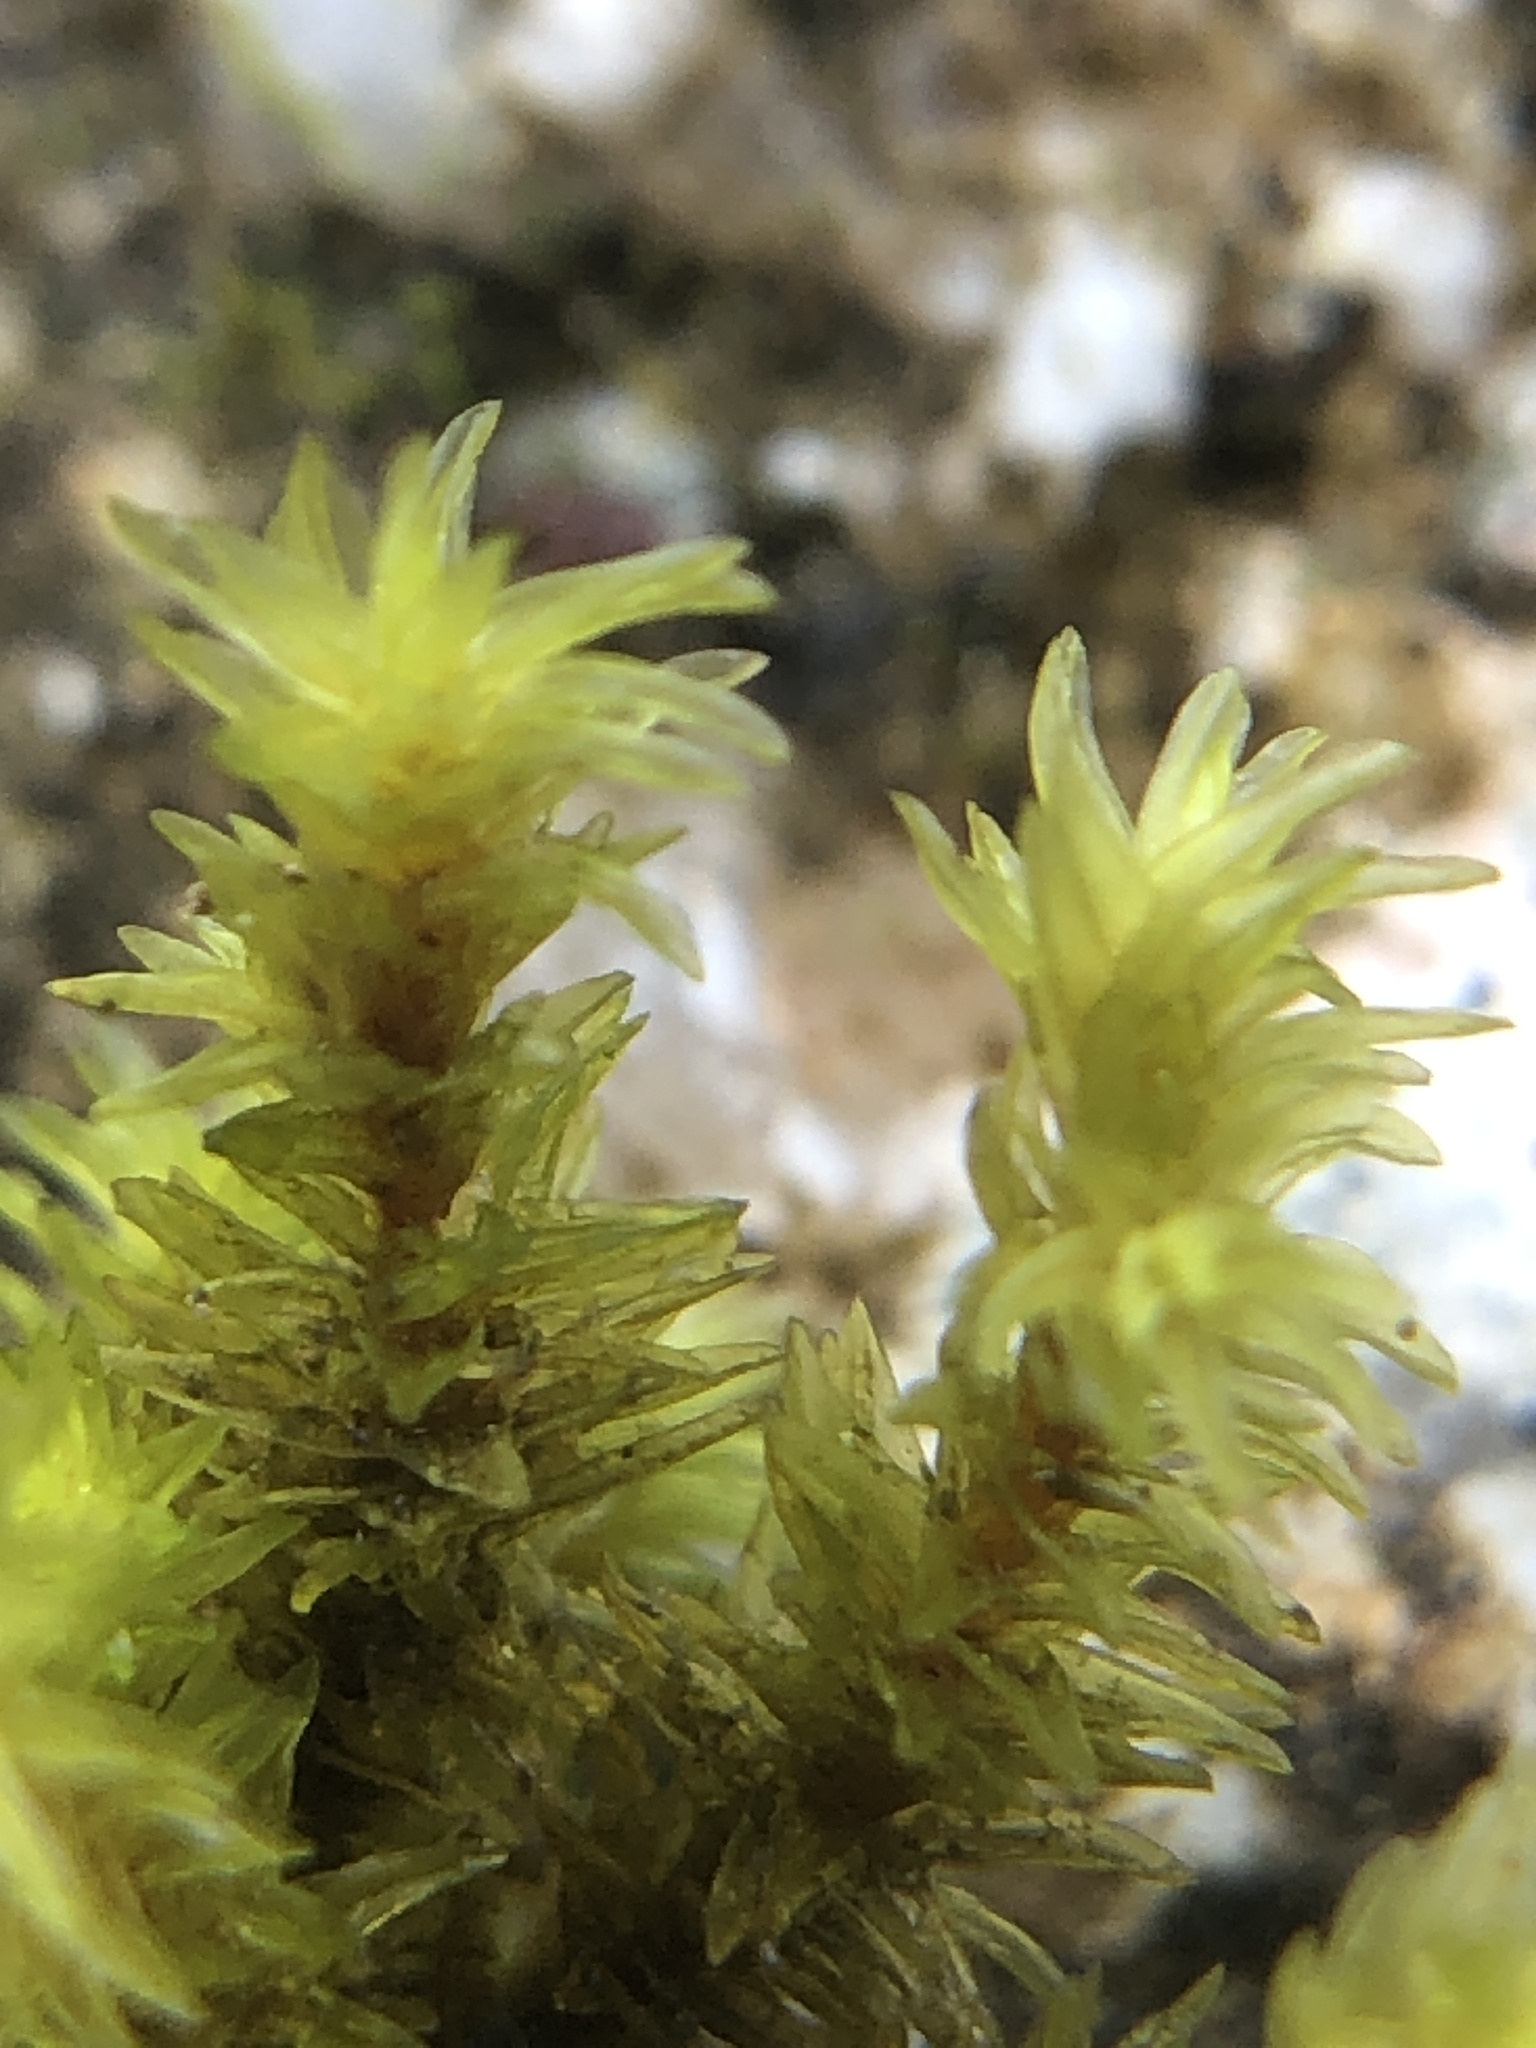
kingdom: Plantae
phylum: Bryophyta
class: Bryopsida
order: Grimmiales
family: Grimmiaceae
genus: Codriophorus
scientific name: Codriophorus acicularis
